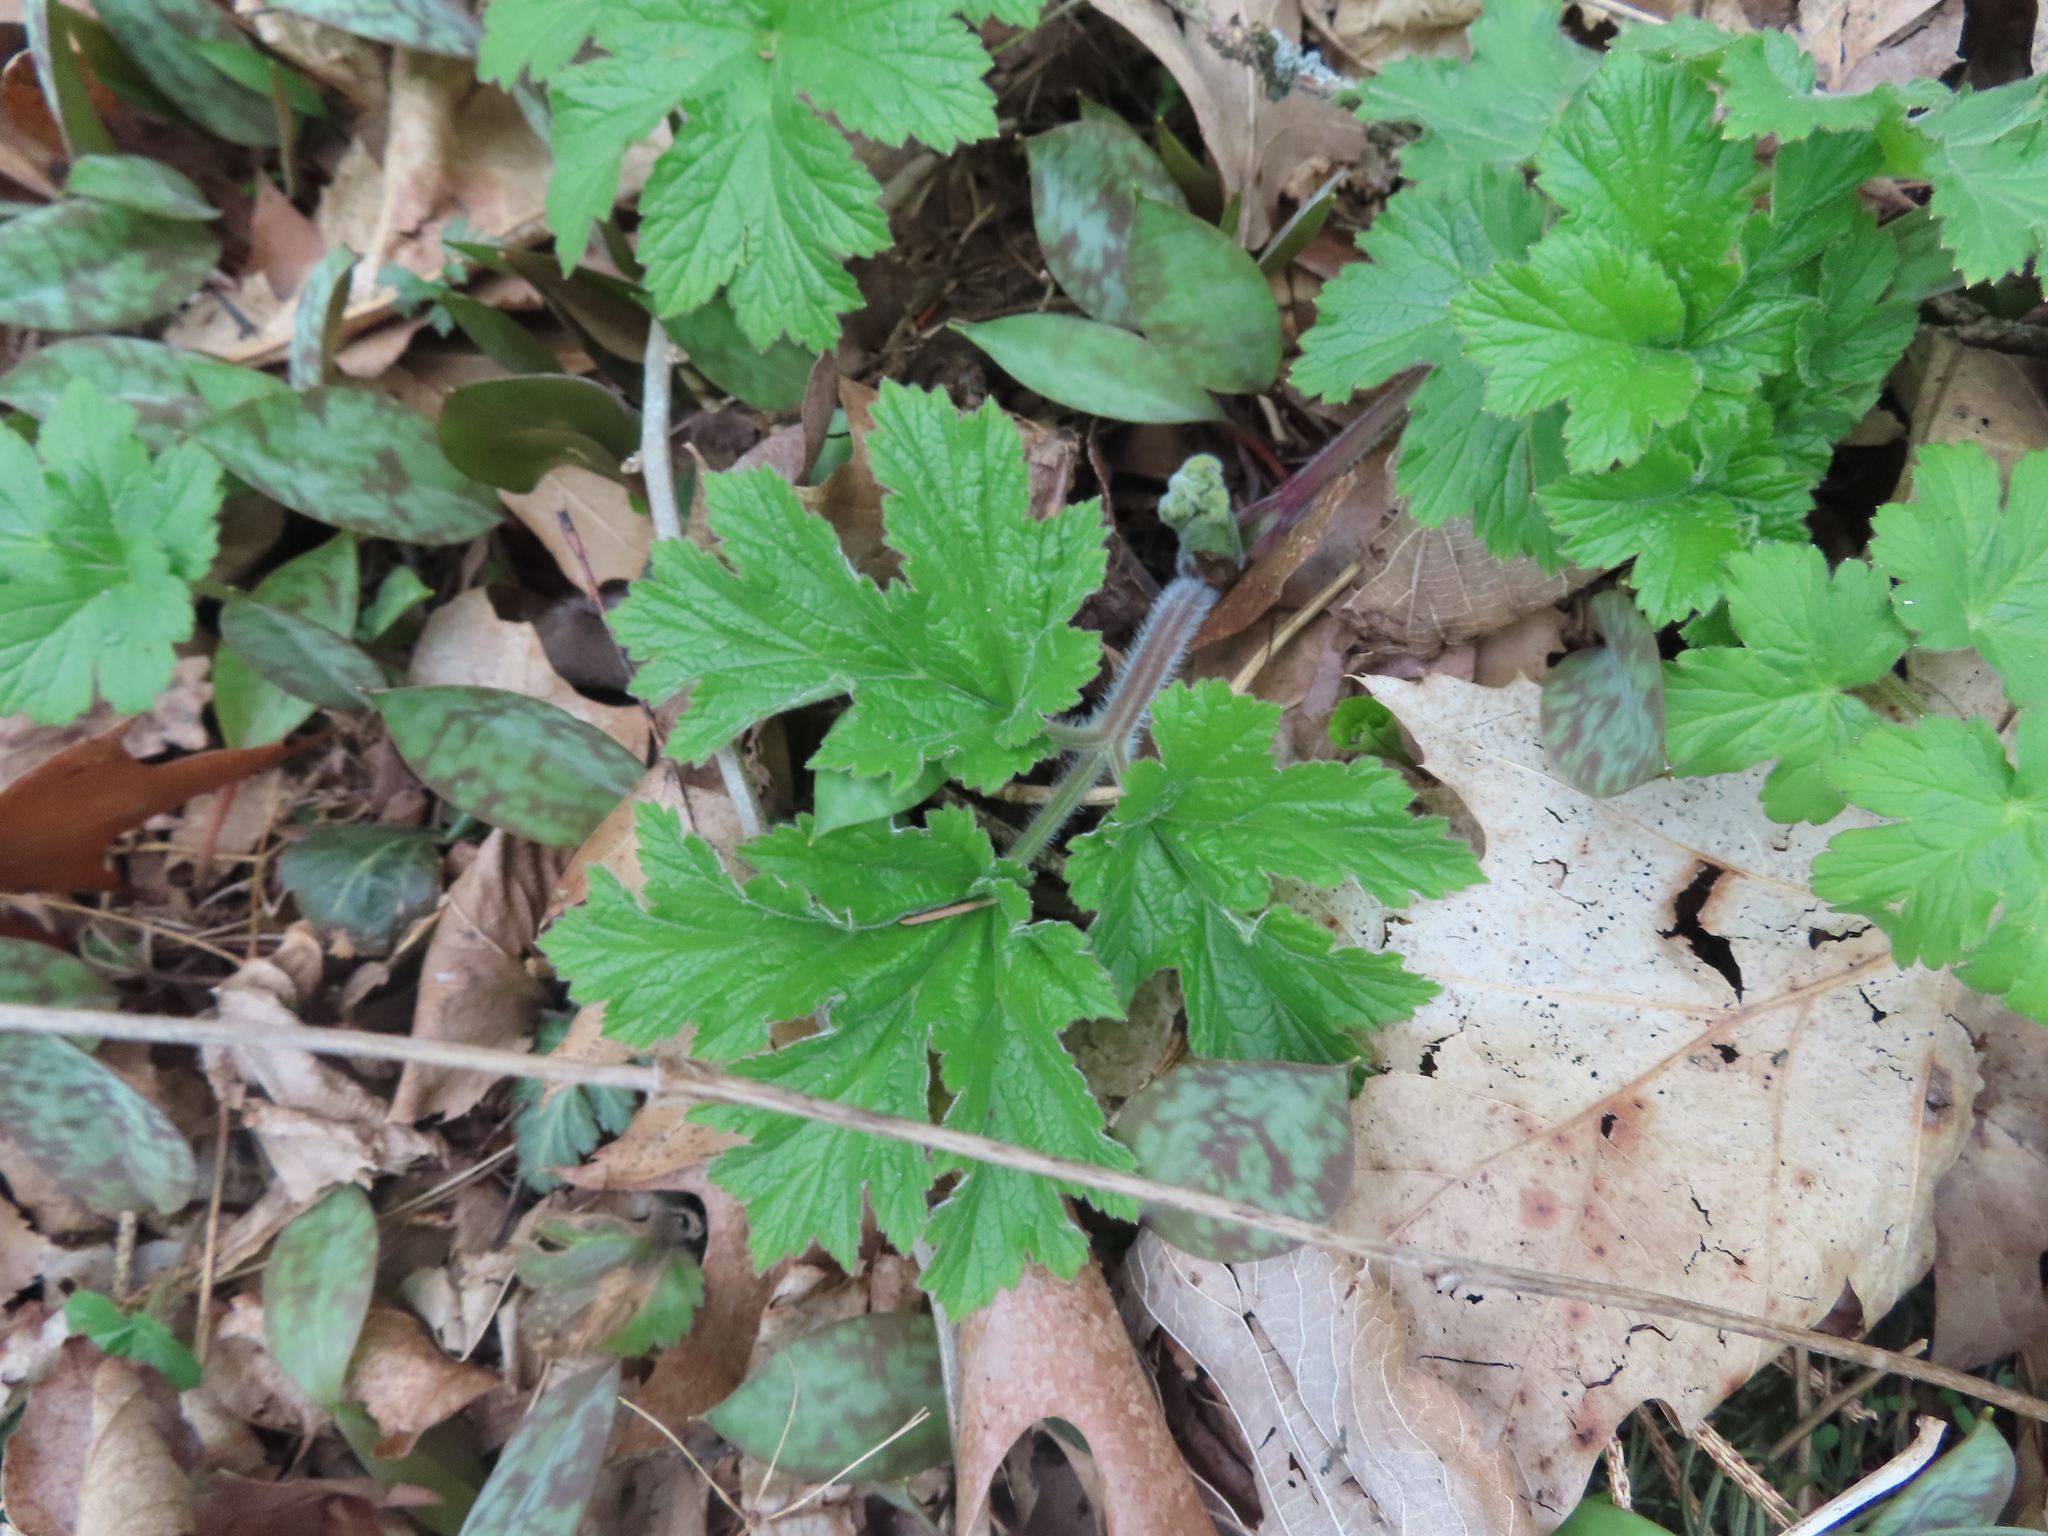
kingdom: Plantae
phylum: Tracheophyta
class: Magnoliopsida
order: Apiales
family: Apiaceae
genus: Heracleum
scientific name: Heracleum maximum
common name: American cow parsnip
